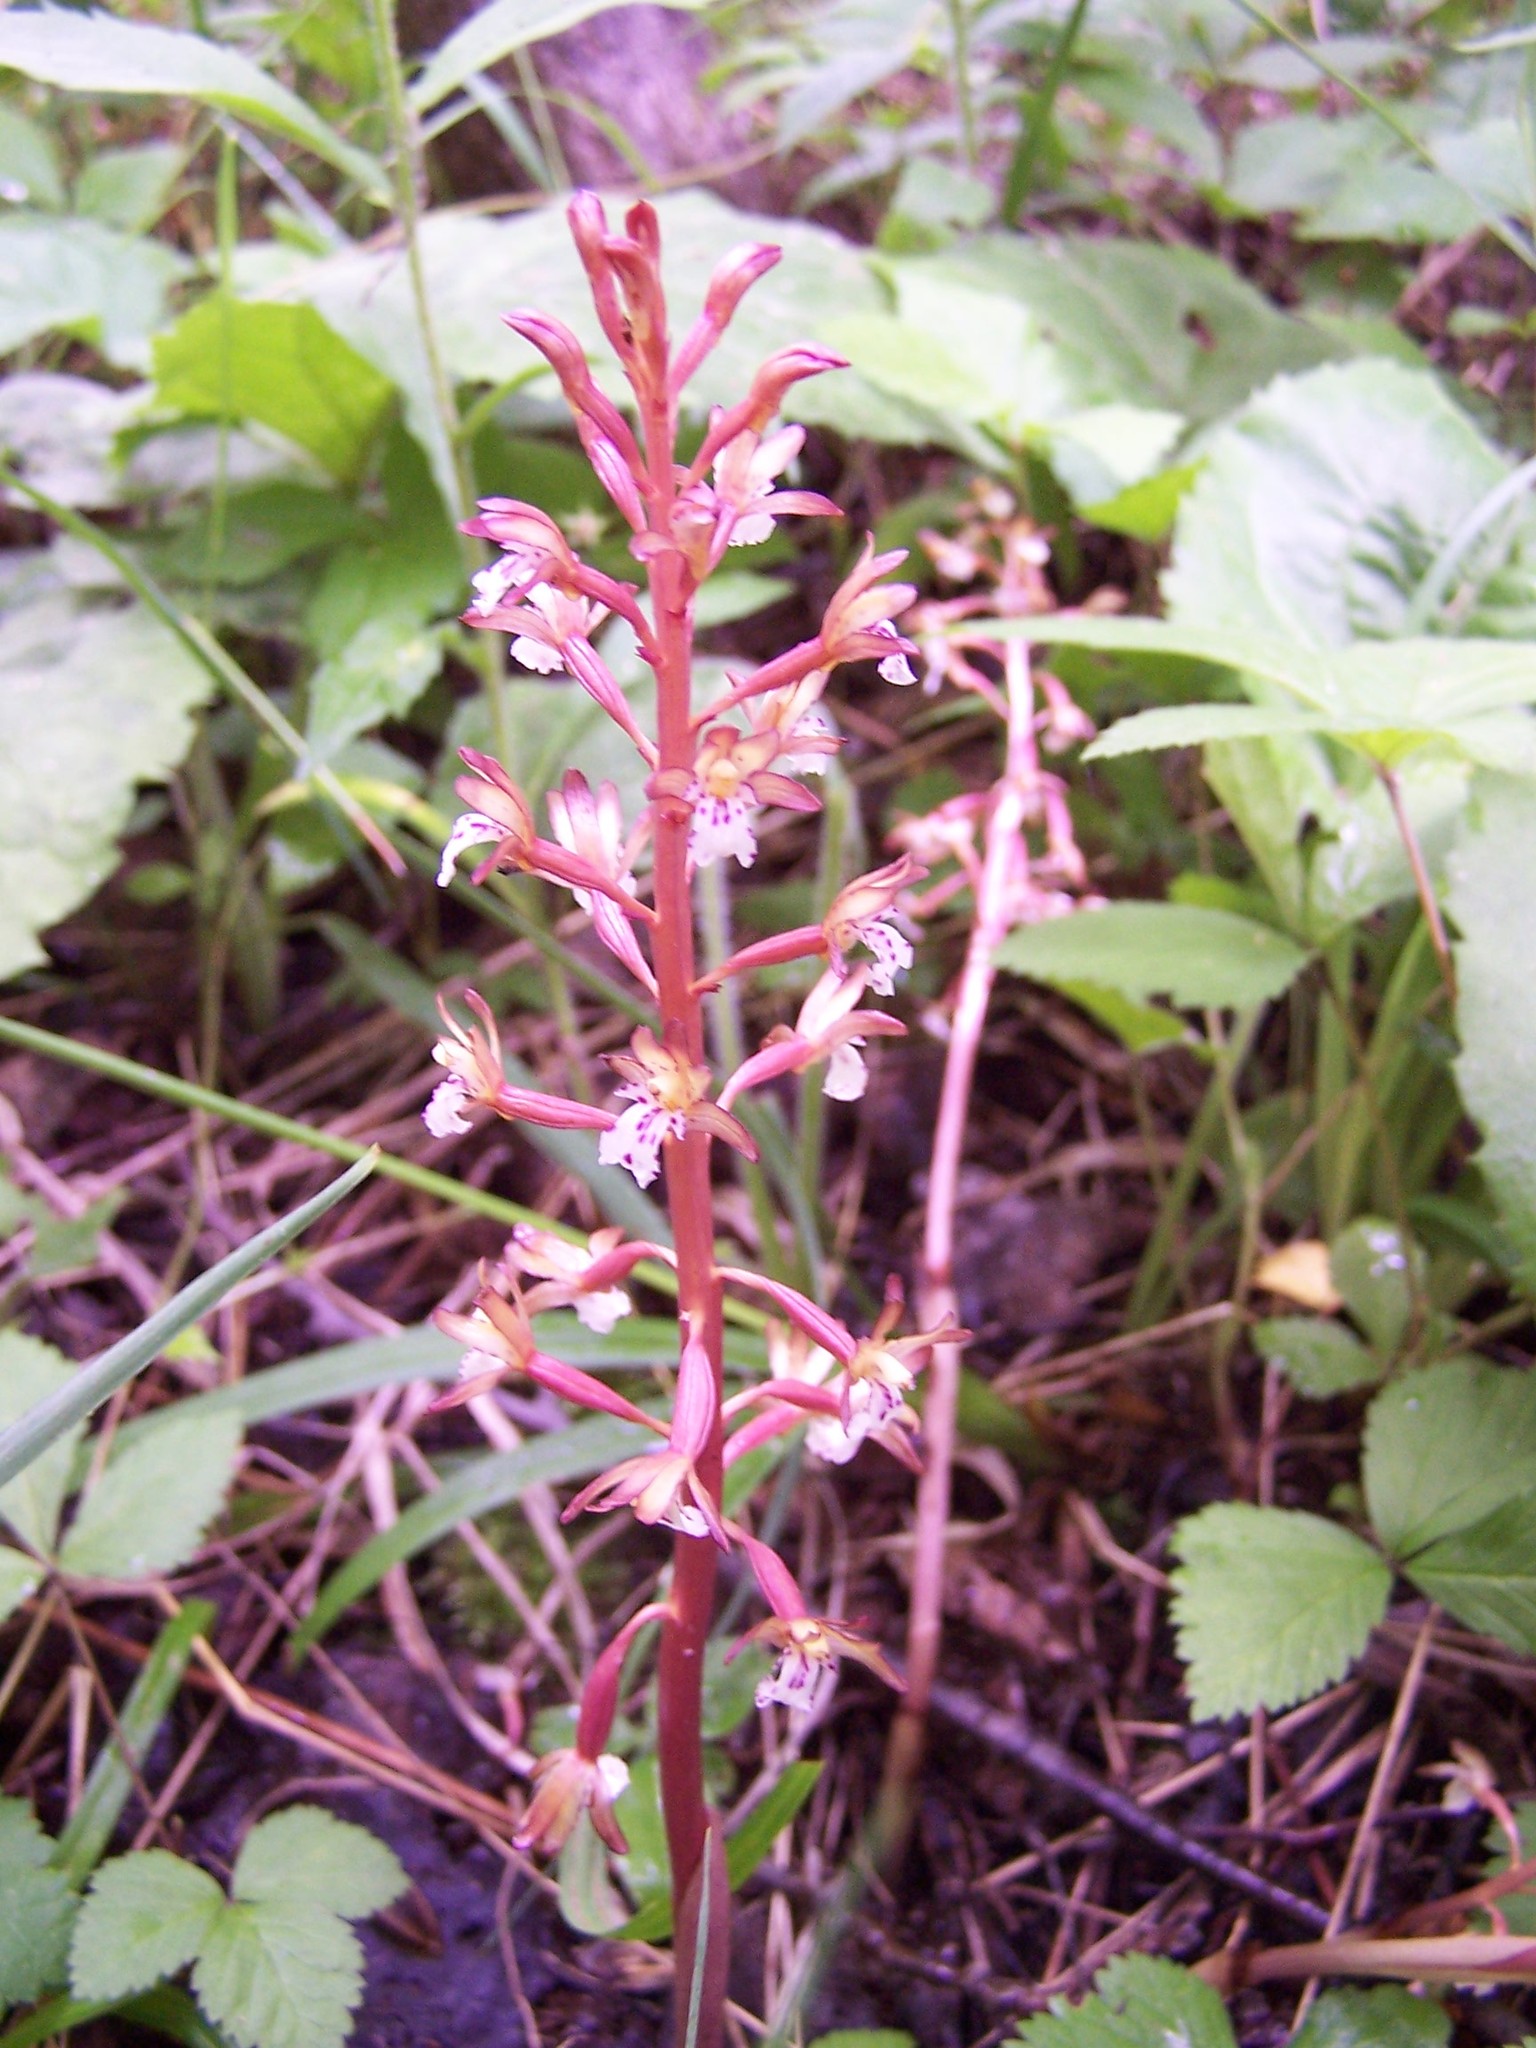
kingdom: Plantae
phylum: Tracheophyta
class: Liliopsida
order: Asparagales
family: Orchidaceae
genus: Corallorhiza
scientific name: Corallorhiza maculata
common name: Spotted coralroot
